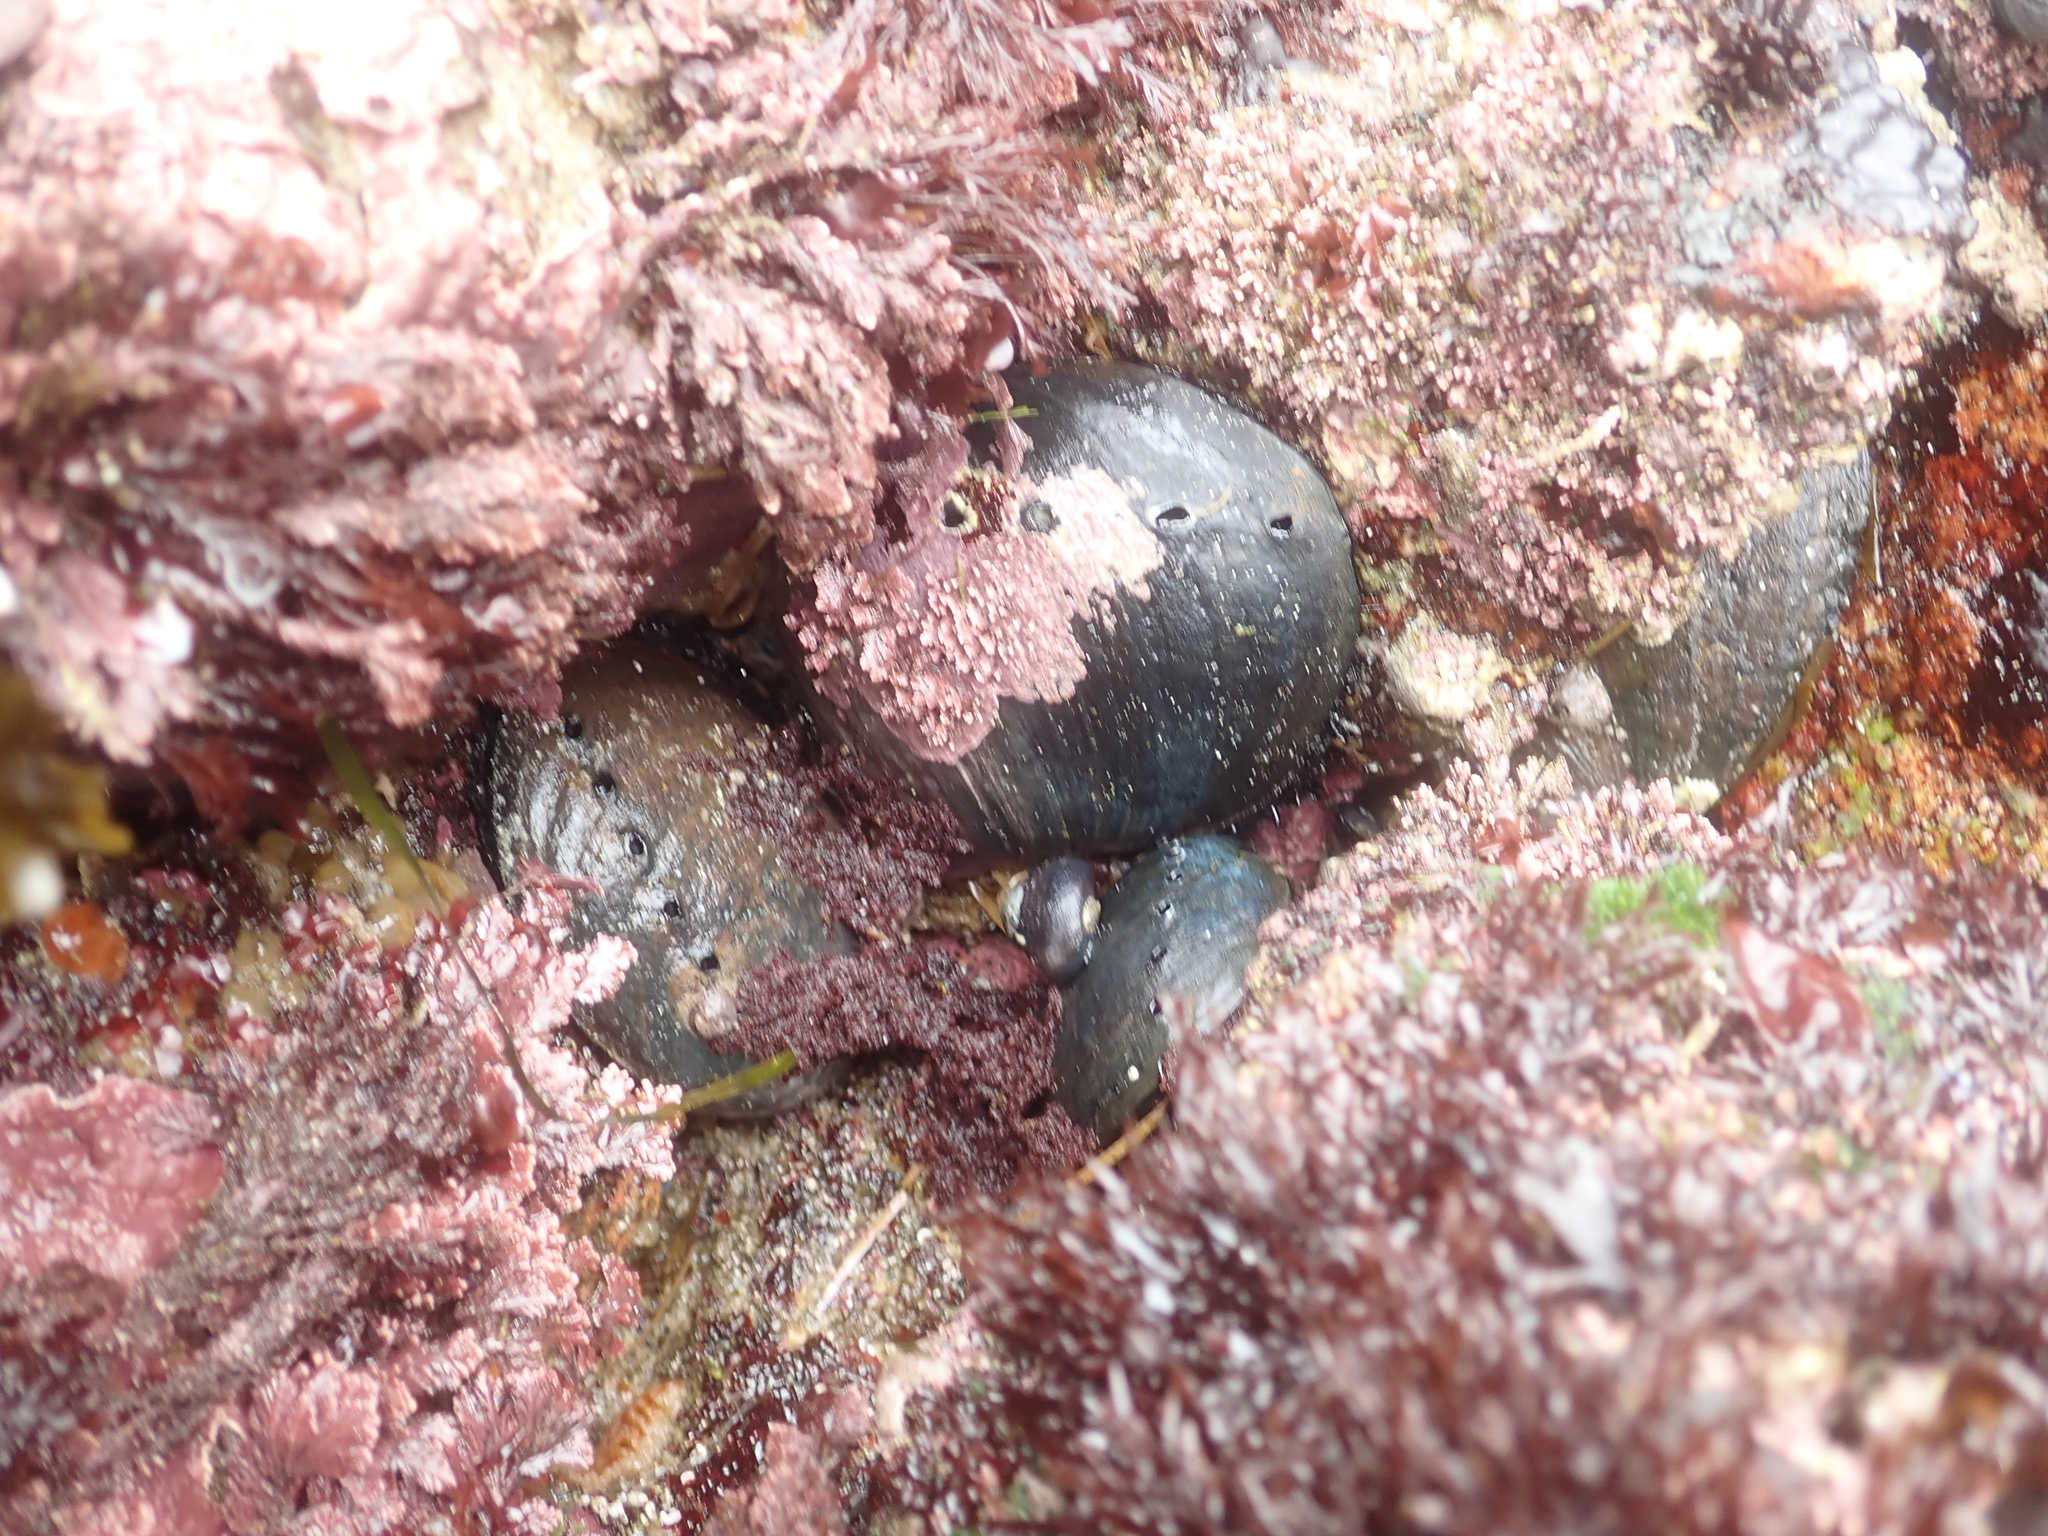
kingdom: Animalia
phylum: Mollusca
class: Gastropoda
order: Lepetellida
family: Haliotidae
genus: Haliotis
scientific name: Haliotis cracherodii
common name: Black abalone
